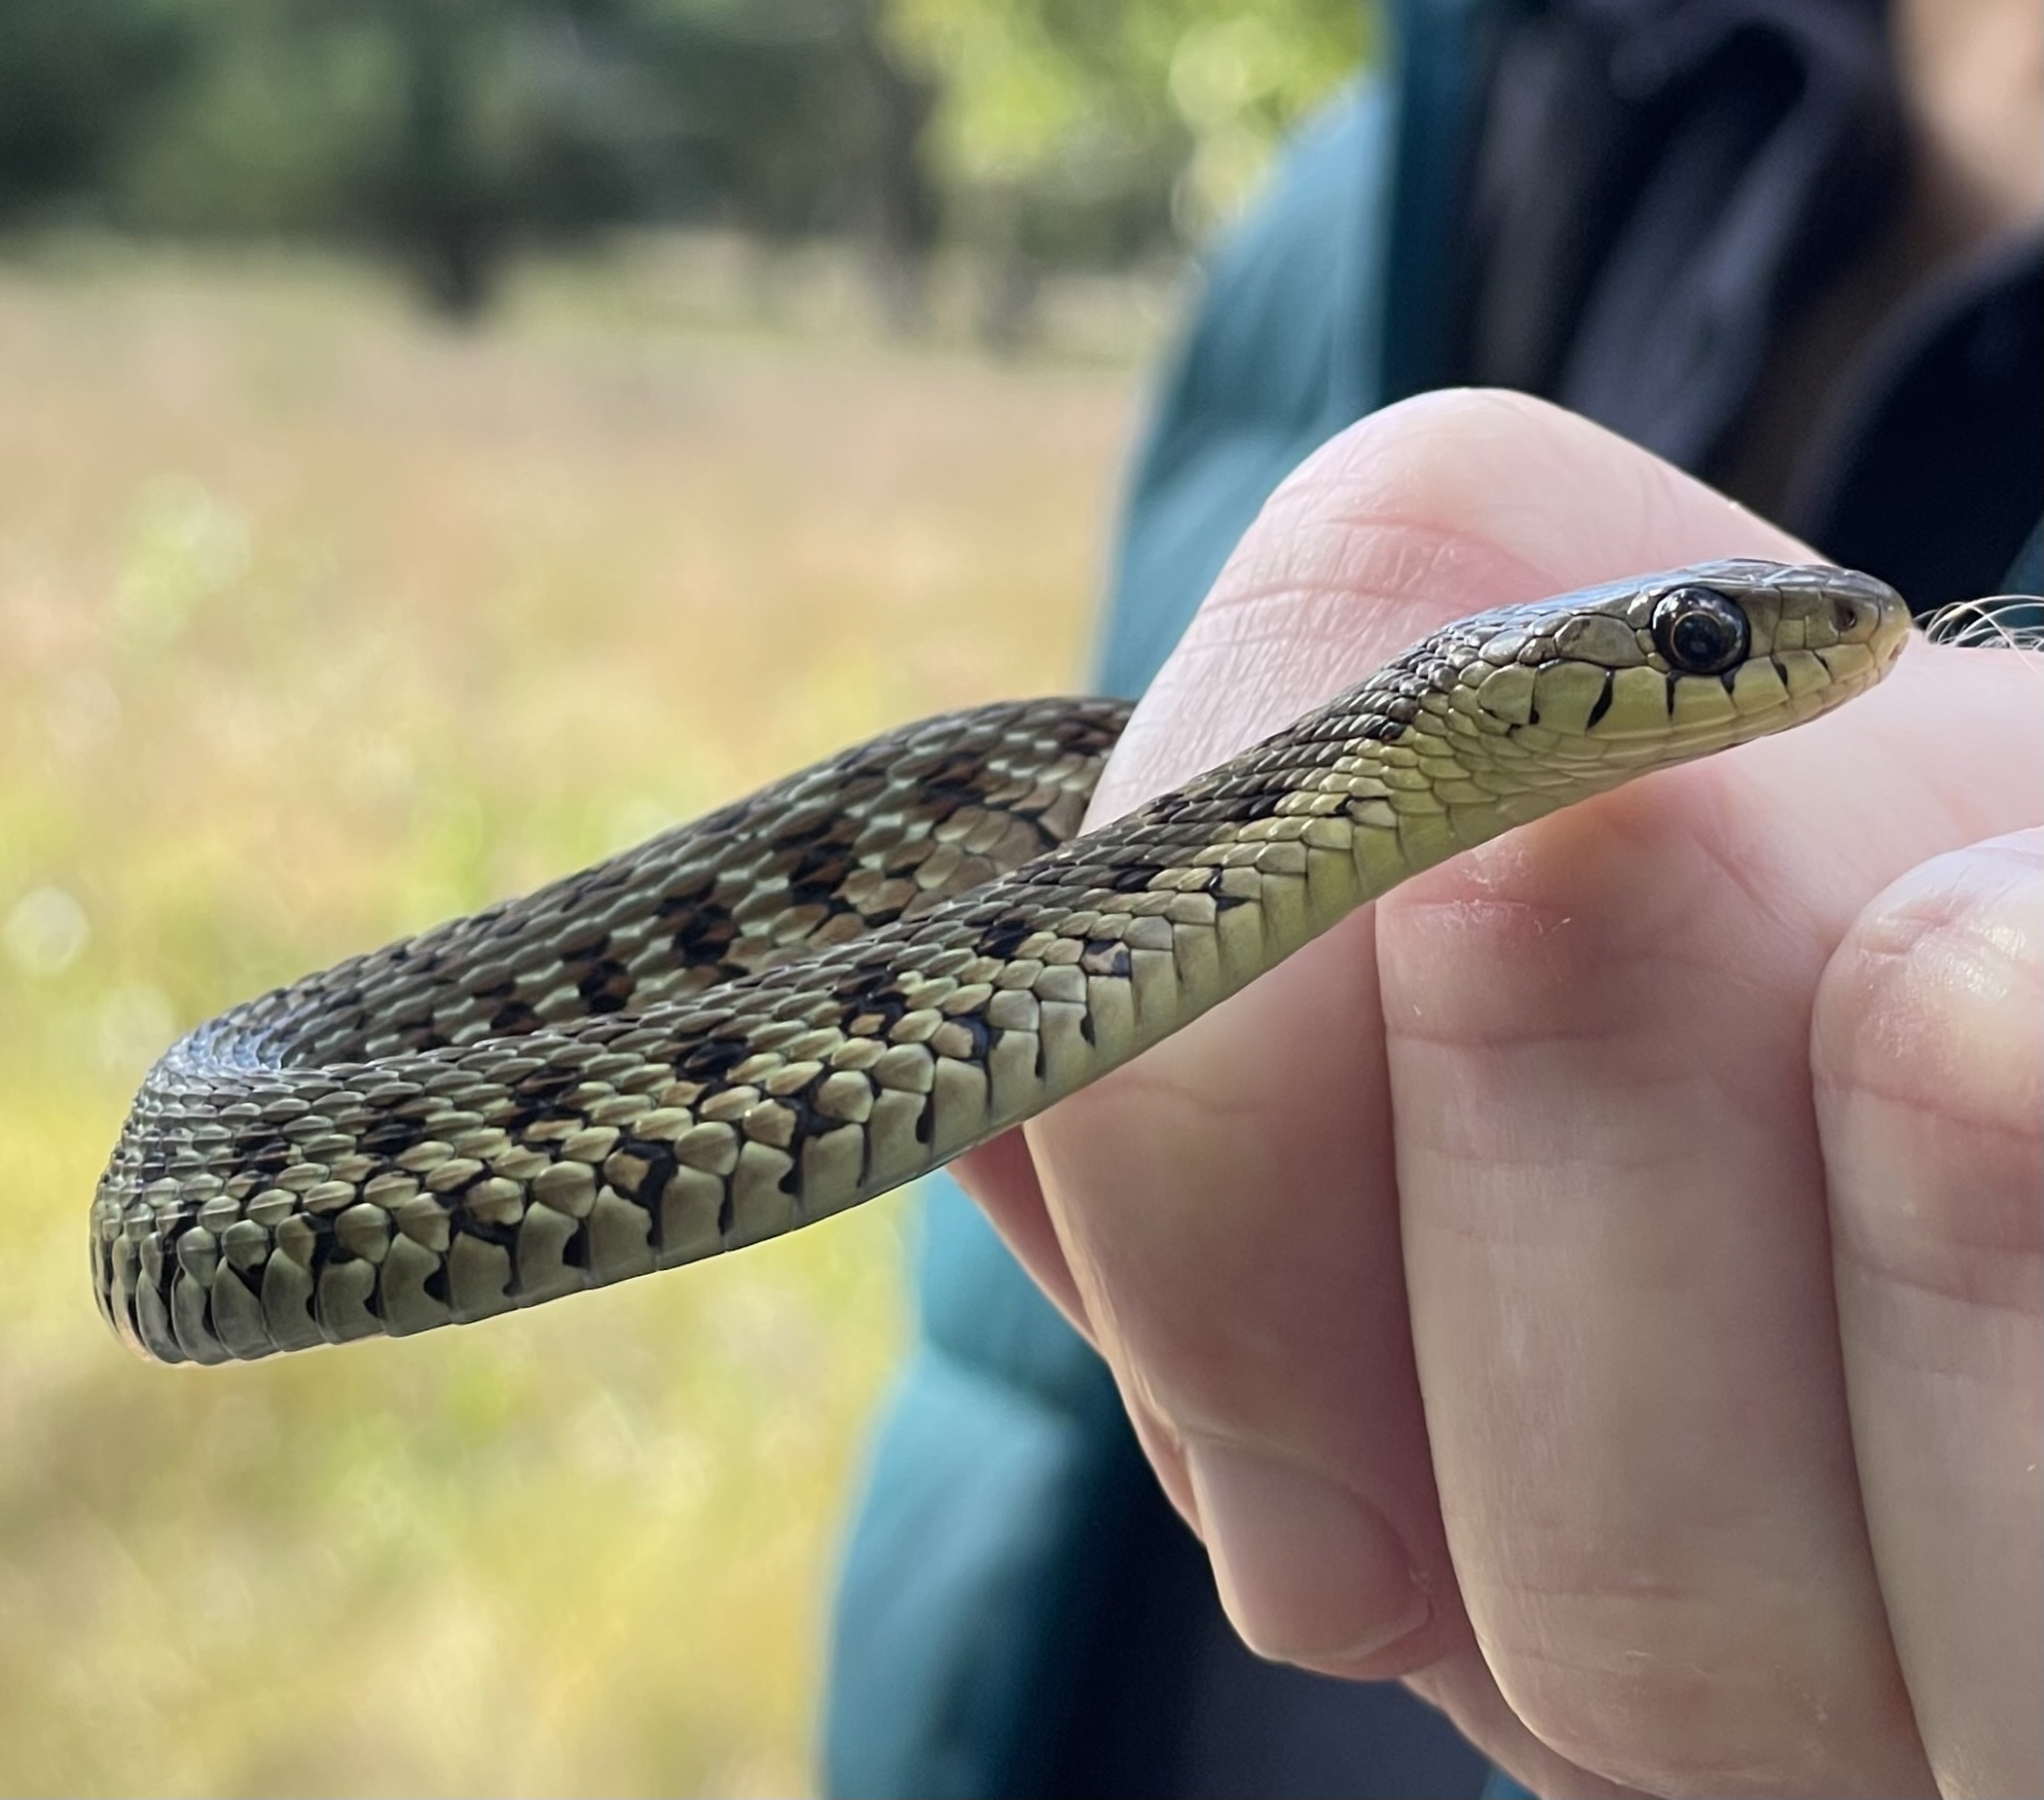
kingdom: Animalia
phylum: Chordata
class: Squamata
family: Colubridae
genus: Thamnophis
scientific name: Thamnophis sirtalis
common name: Common garter snake
